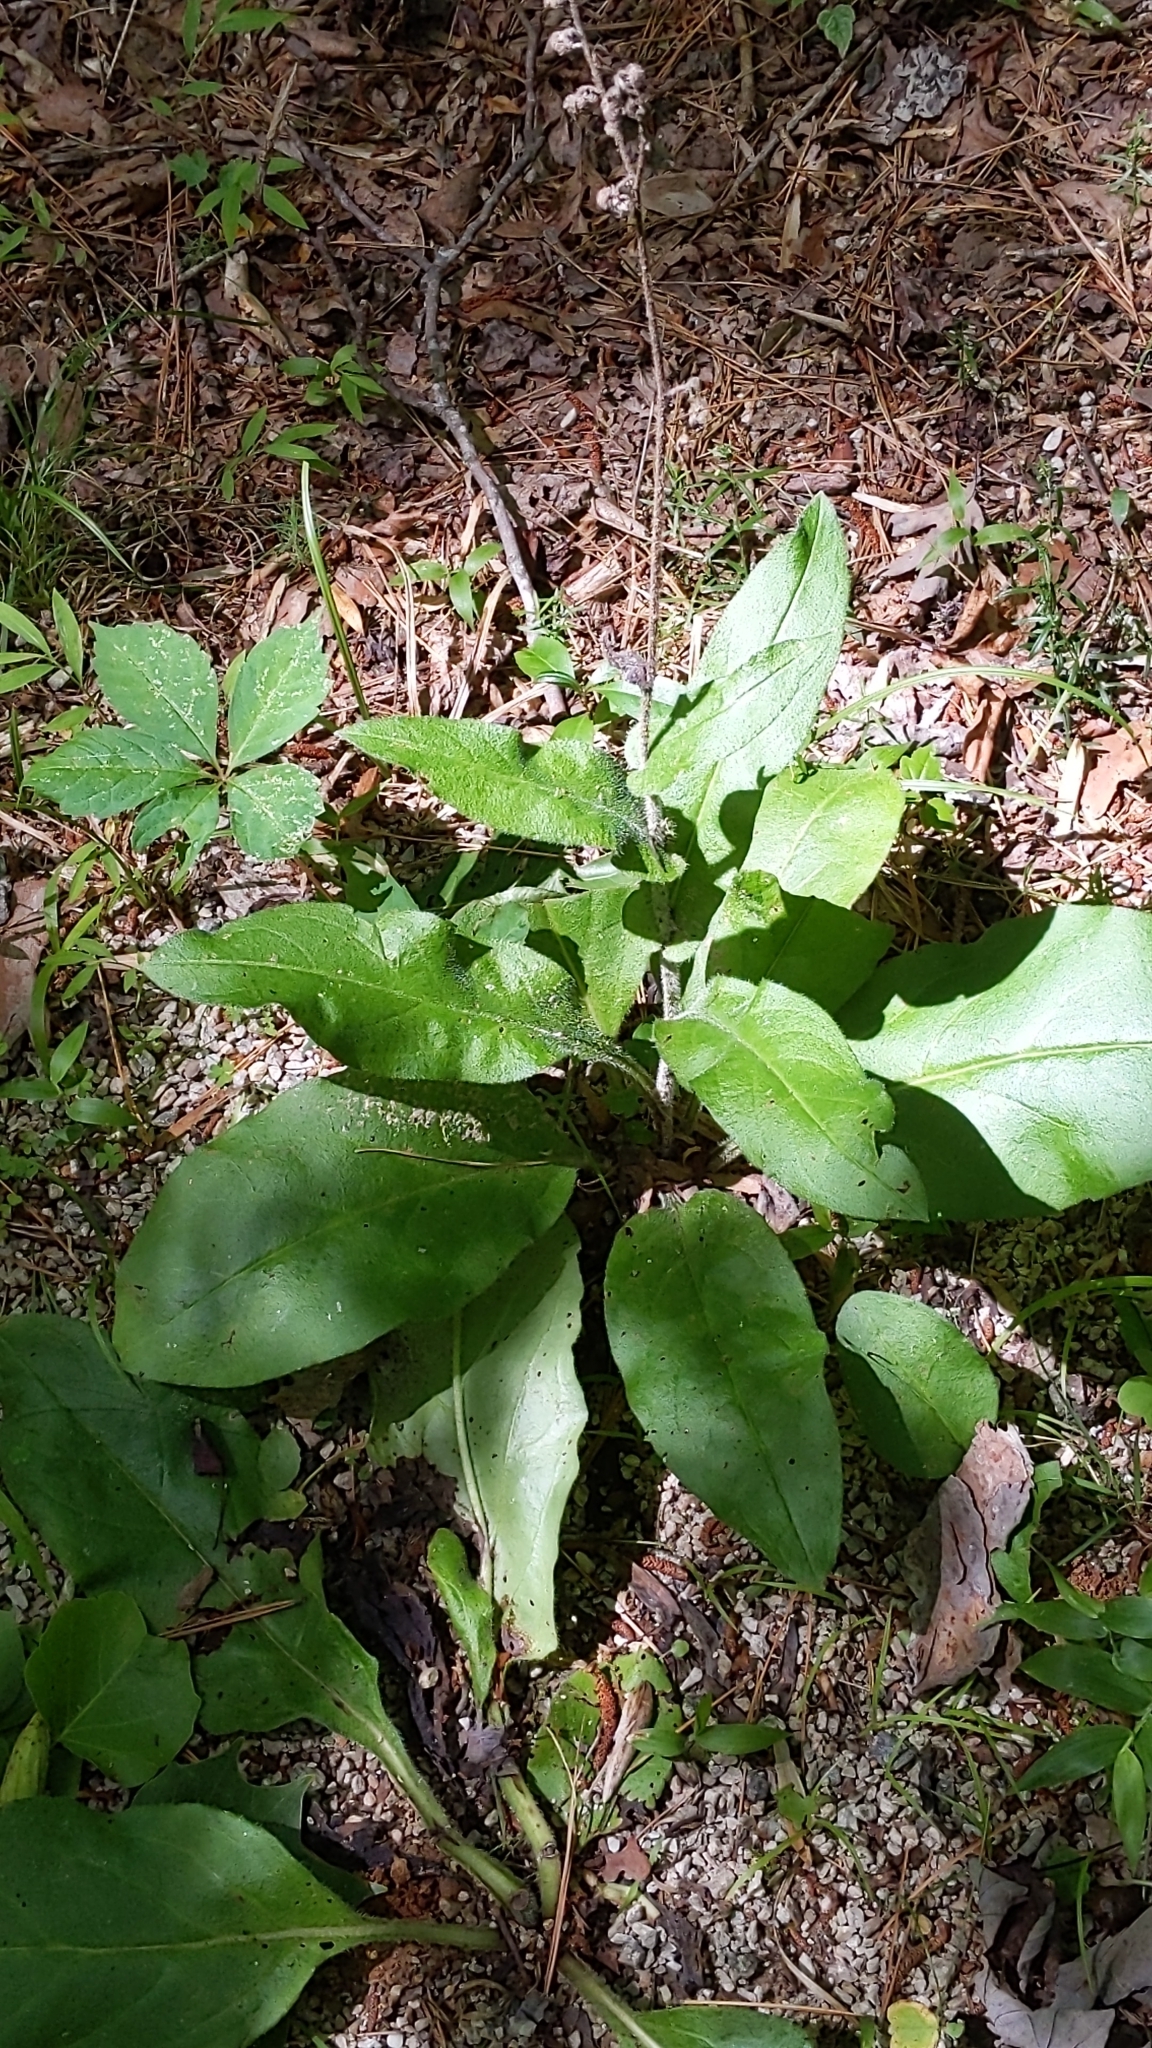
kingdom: Plantae
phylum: Tracheophyta
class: Magnoliopsida
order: Boraginales
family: Boraginaceae
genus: Andersonglossum
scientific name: Andersonglossum virginianum
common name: Wild comfrey
